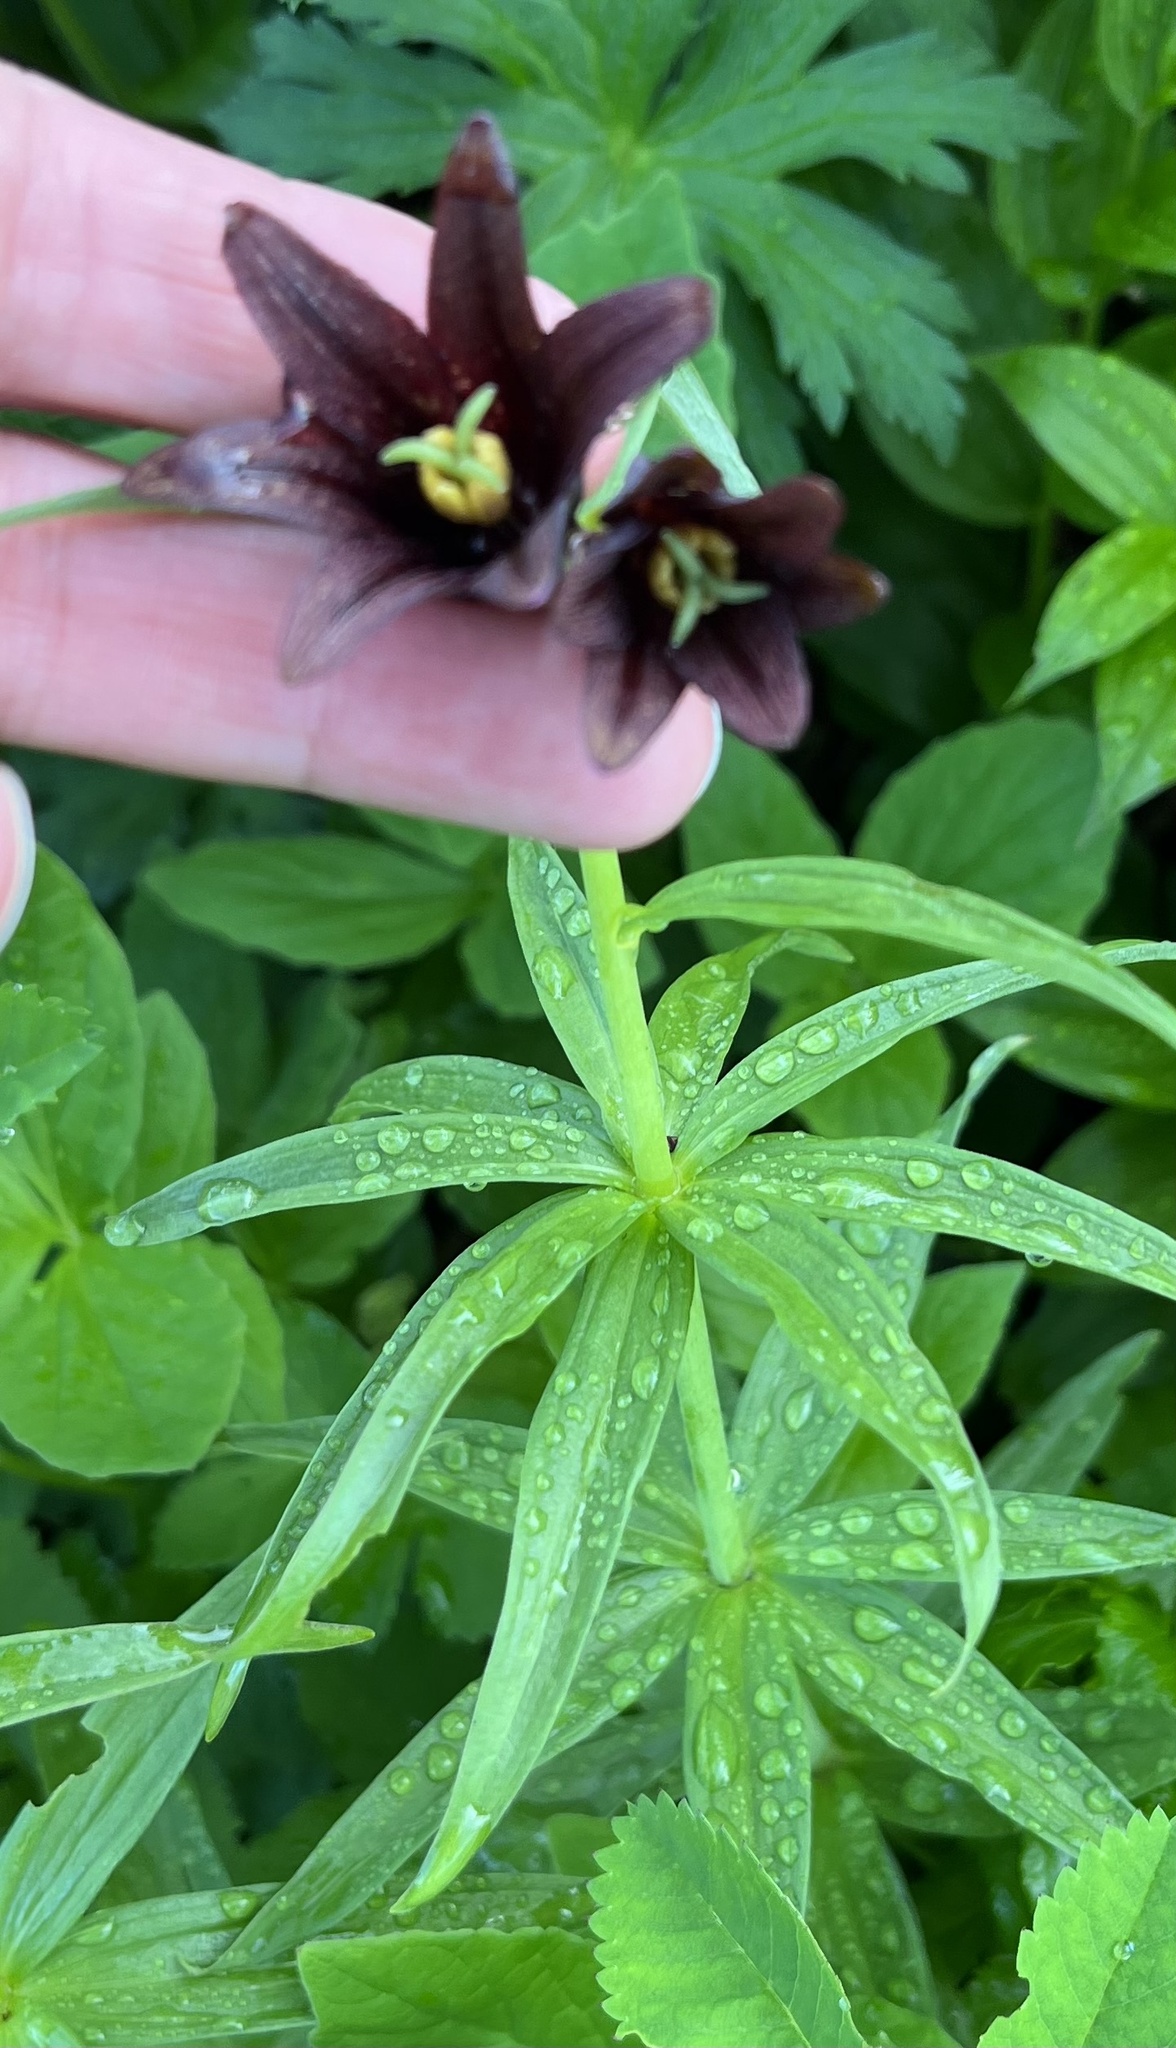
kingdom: Plantae
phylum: Tracheophyta
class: Liliopsida
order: Liliales
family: Liliaceae
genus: Fritillaria
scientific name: Fritillaria camschatcensis
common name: Kamchatka fritillary
